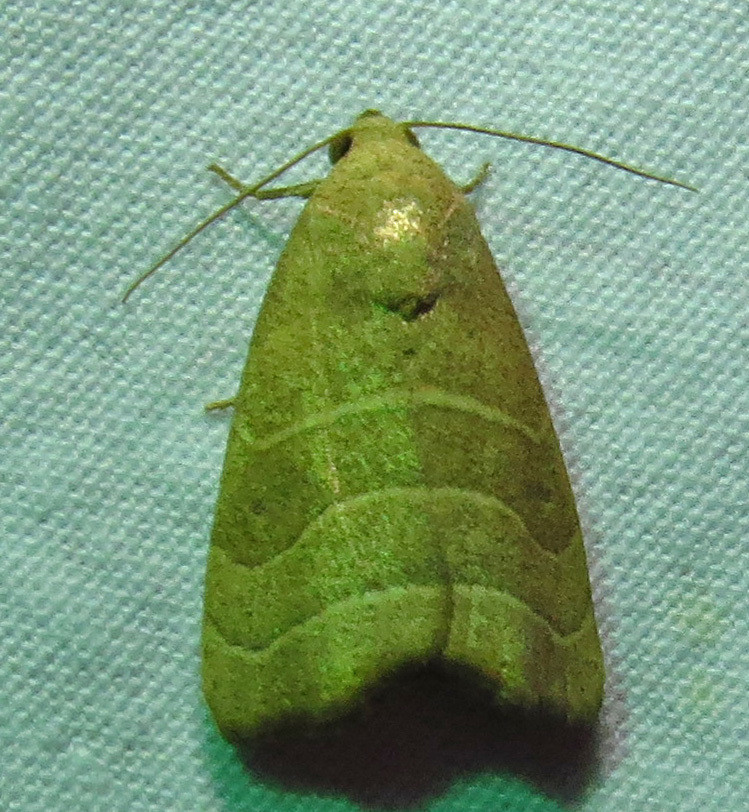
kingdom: Animalia
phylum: Arthropoda
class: Insecta
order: Lepidoptera
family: Noctuidae
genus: Bagisara
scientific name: Bagisara repanda
